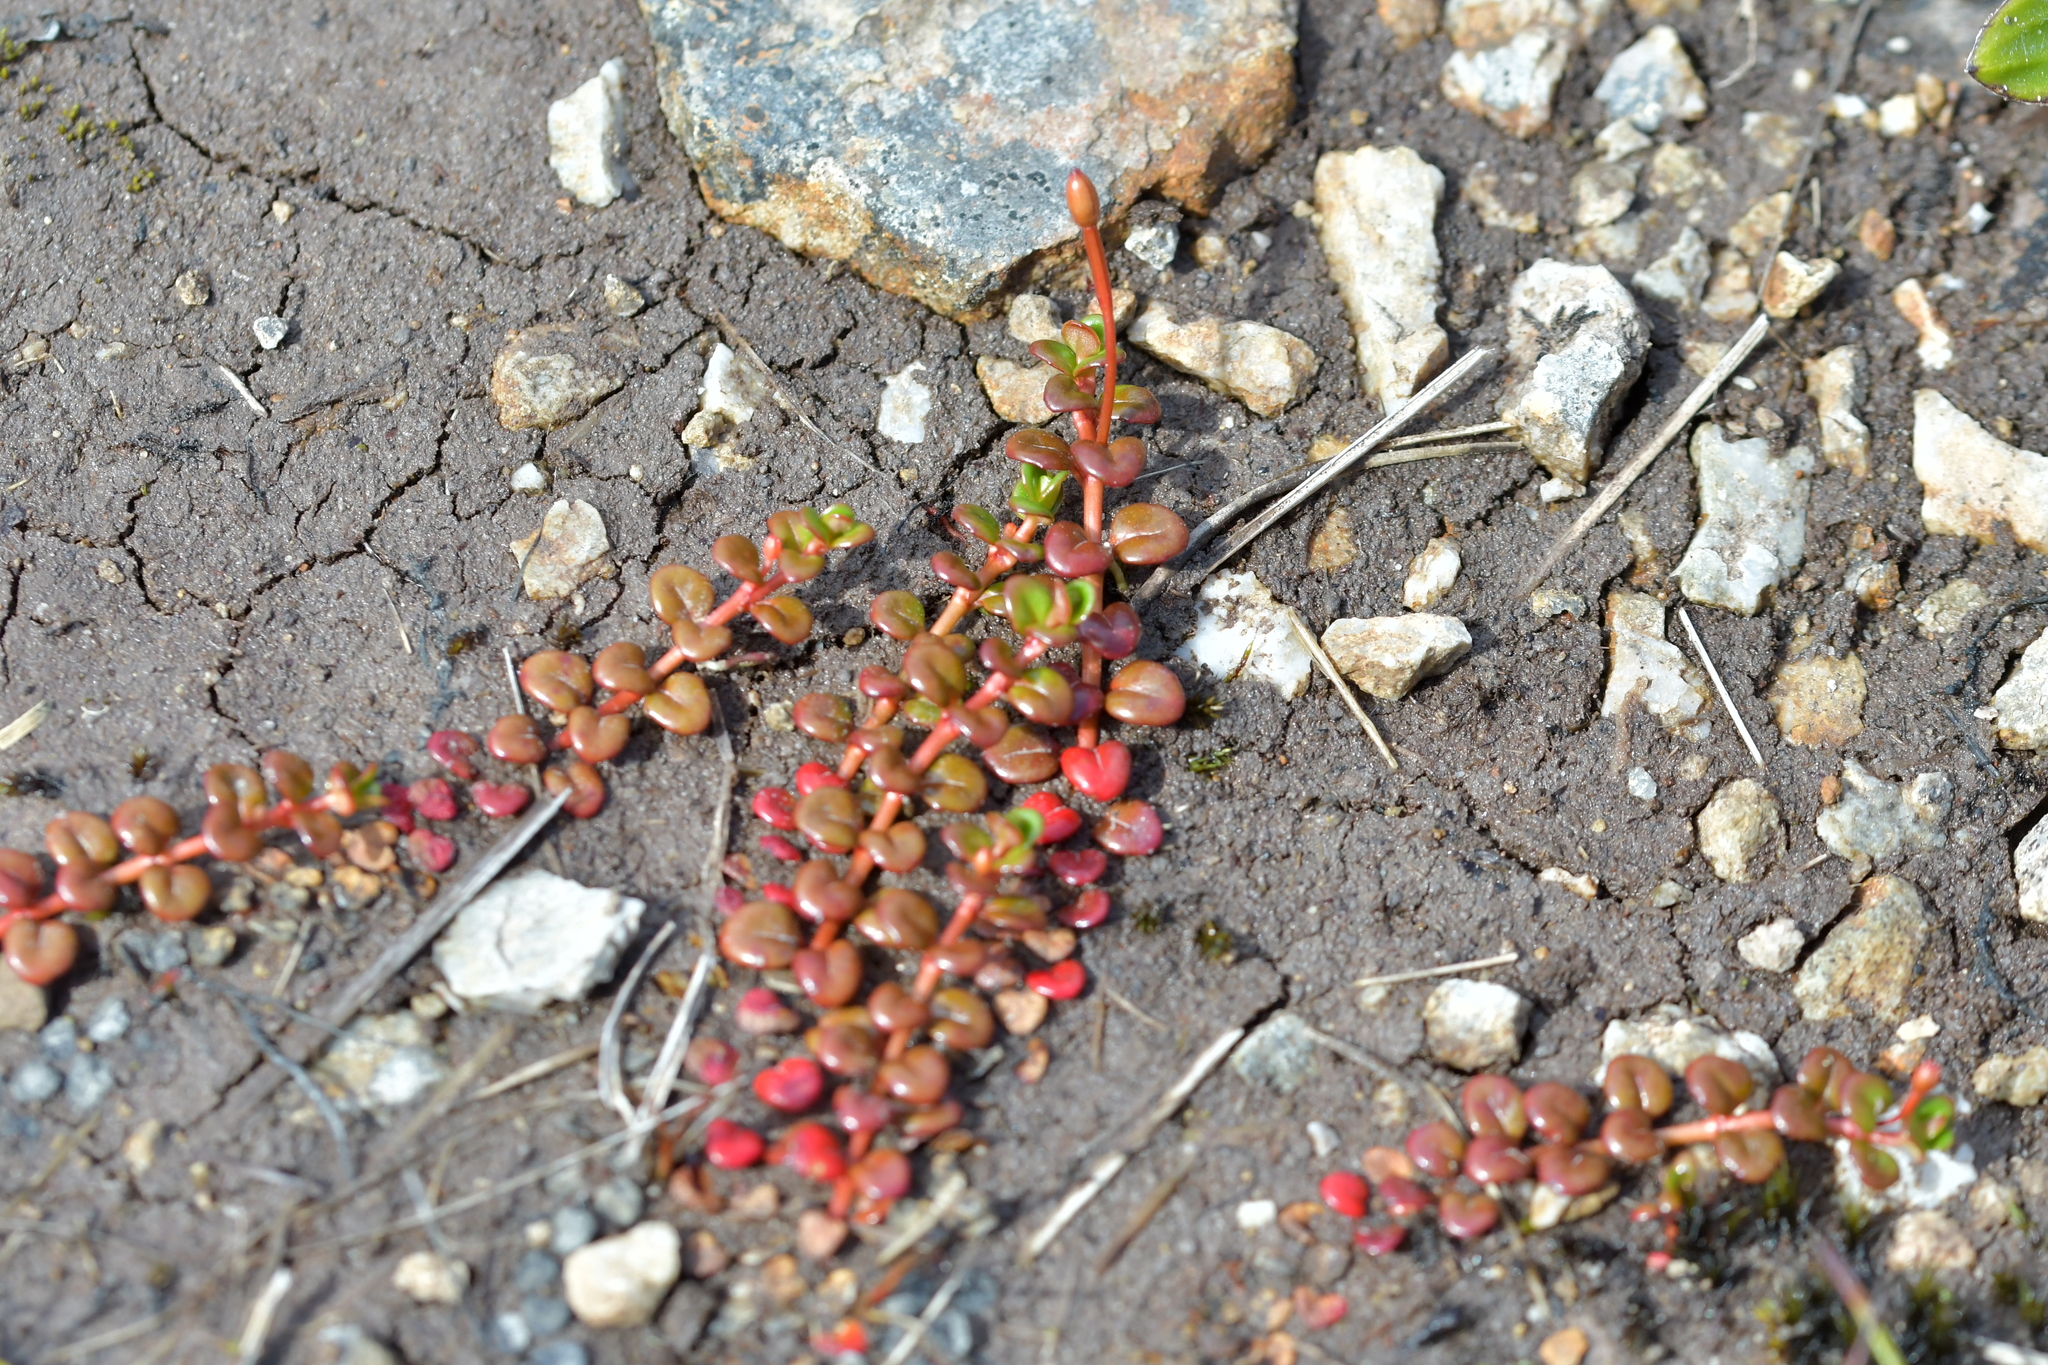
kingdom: Plantae
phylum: Tracheophyta
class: Magnoliopsida
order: Myrtales
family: Onagraceae
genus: Epilobium
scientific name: Epilobium pernitens
